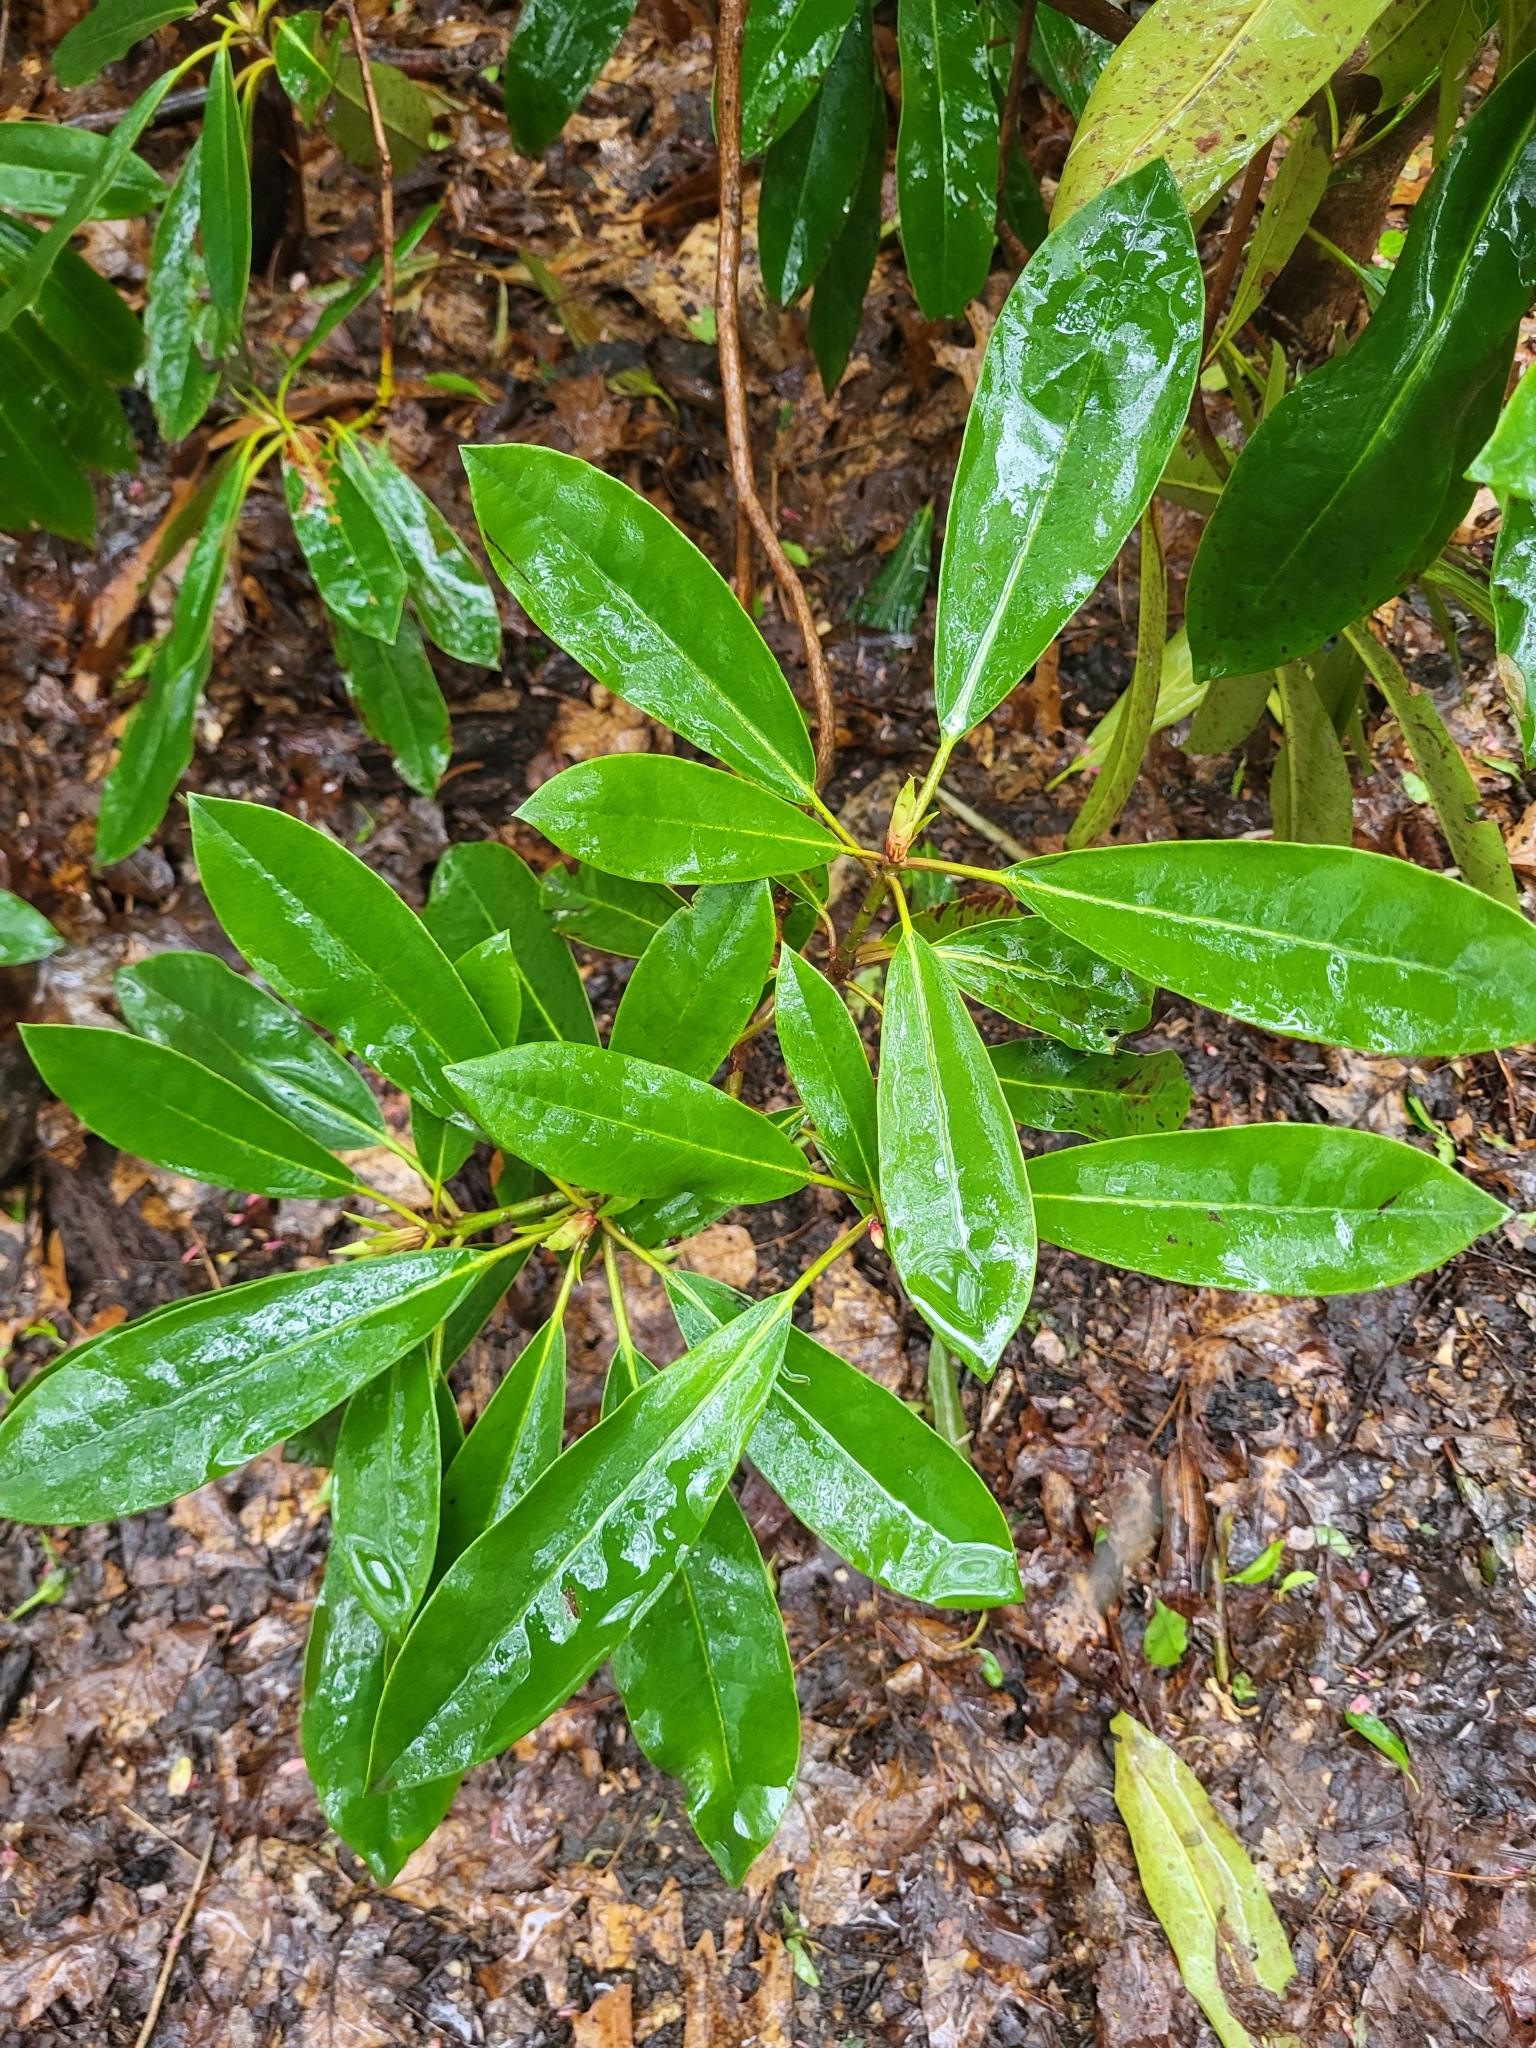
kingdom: Plantae
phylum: Tracheophyta
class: Magnoliopsida
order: Ericales
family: Ericaceae
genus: Rhododendron
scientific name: Rhododendron maximum
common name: Great rhododendron
